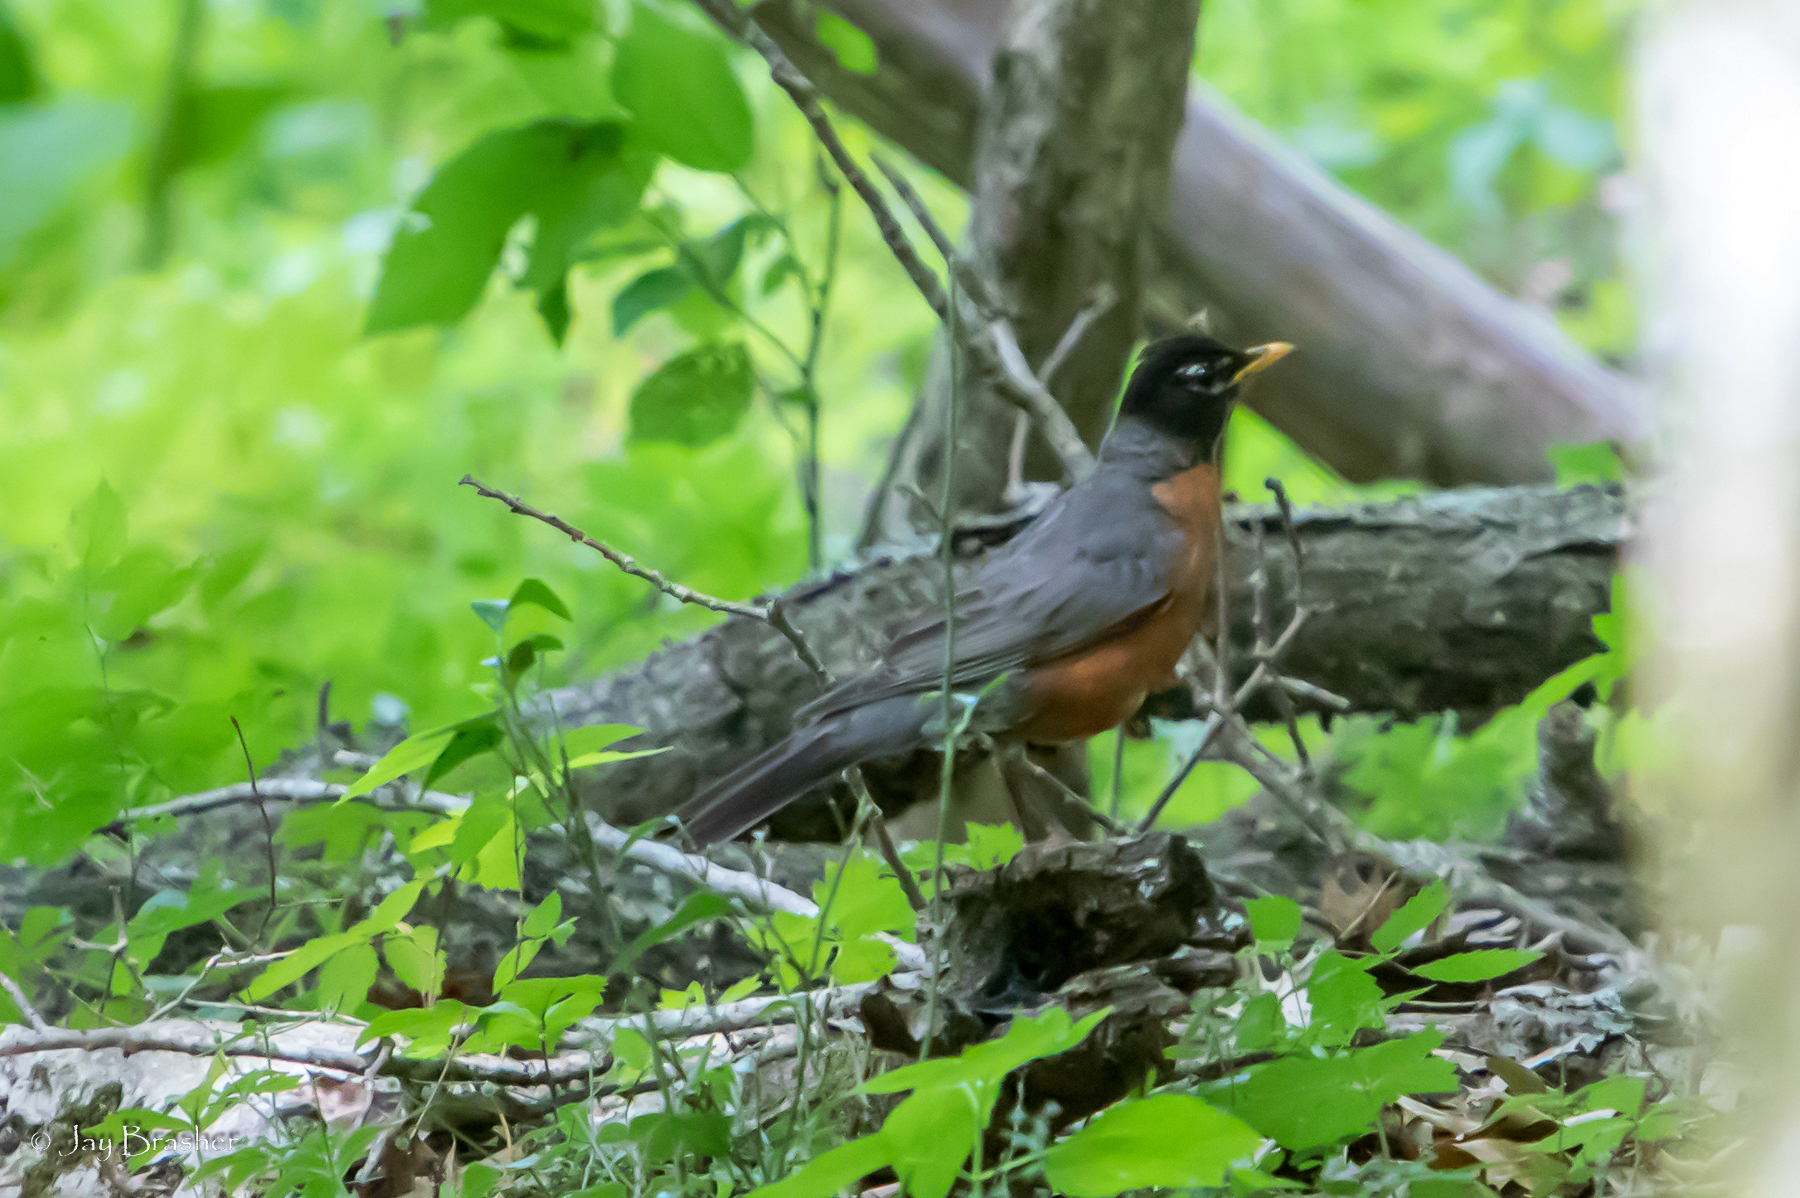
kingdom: Animalia
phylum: Chordata
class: Aves
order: Passeriformes
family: Turdidae
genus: Turdus
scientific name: Turdus migratorius
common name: American robin
